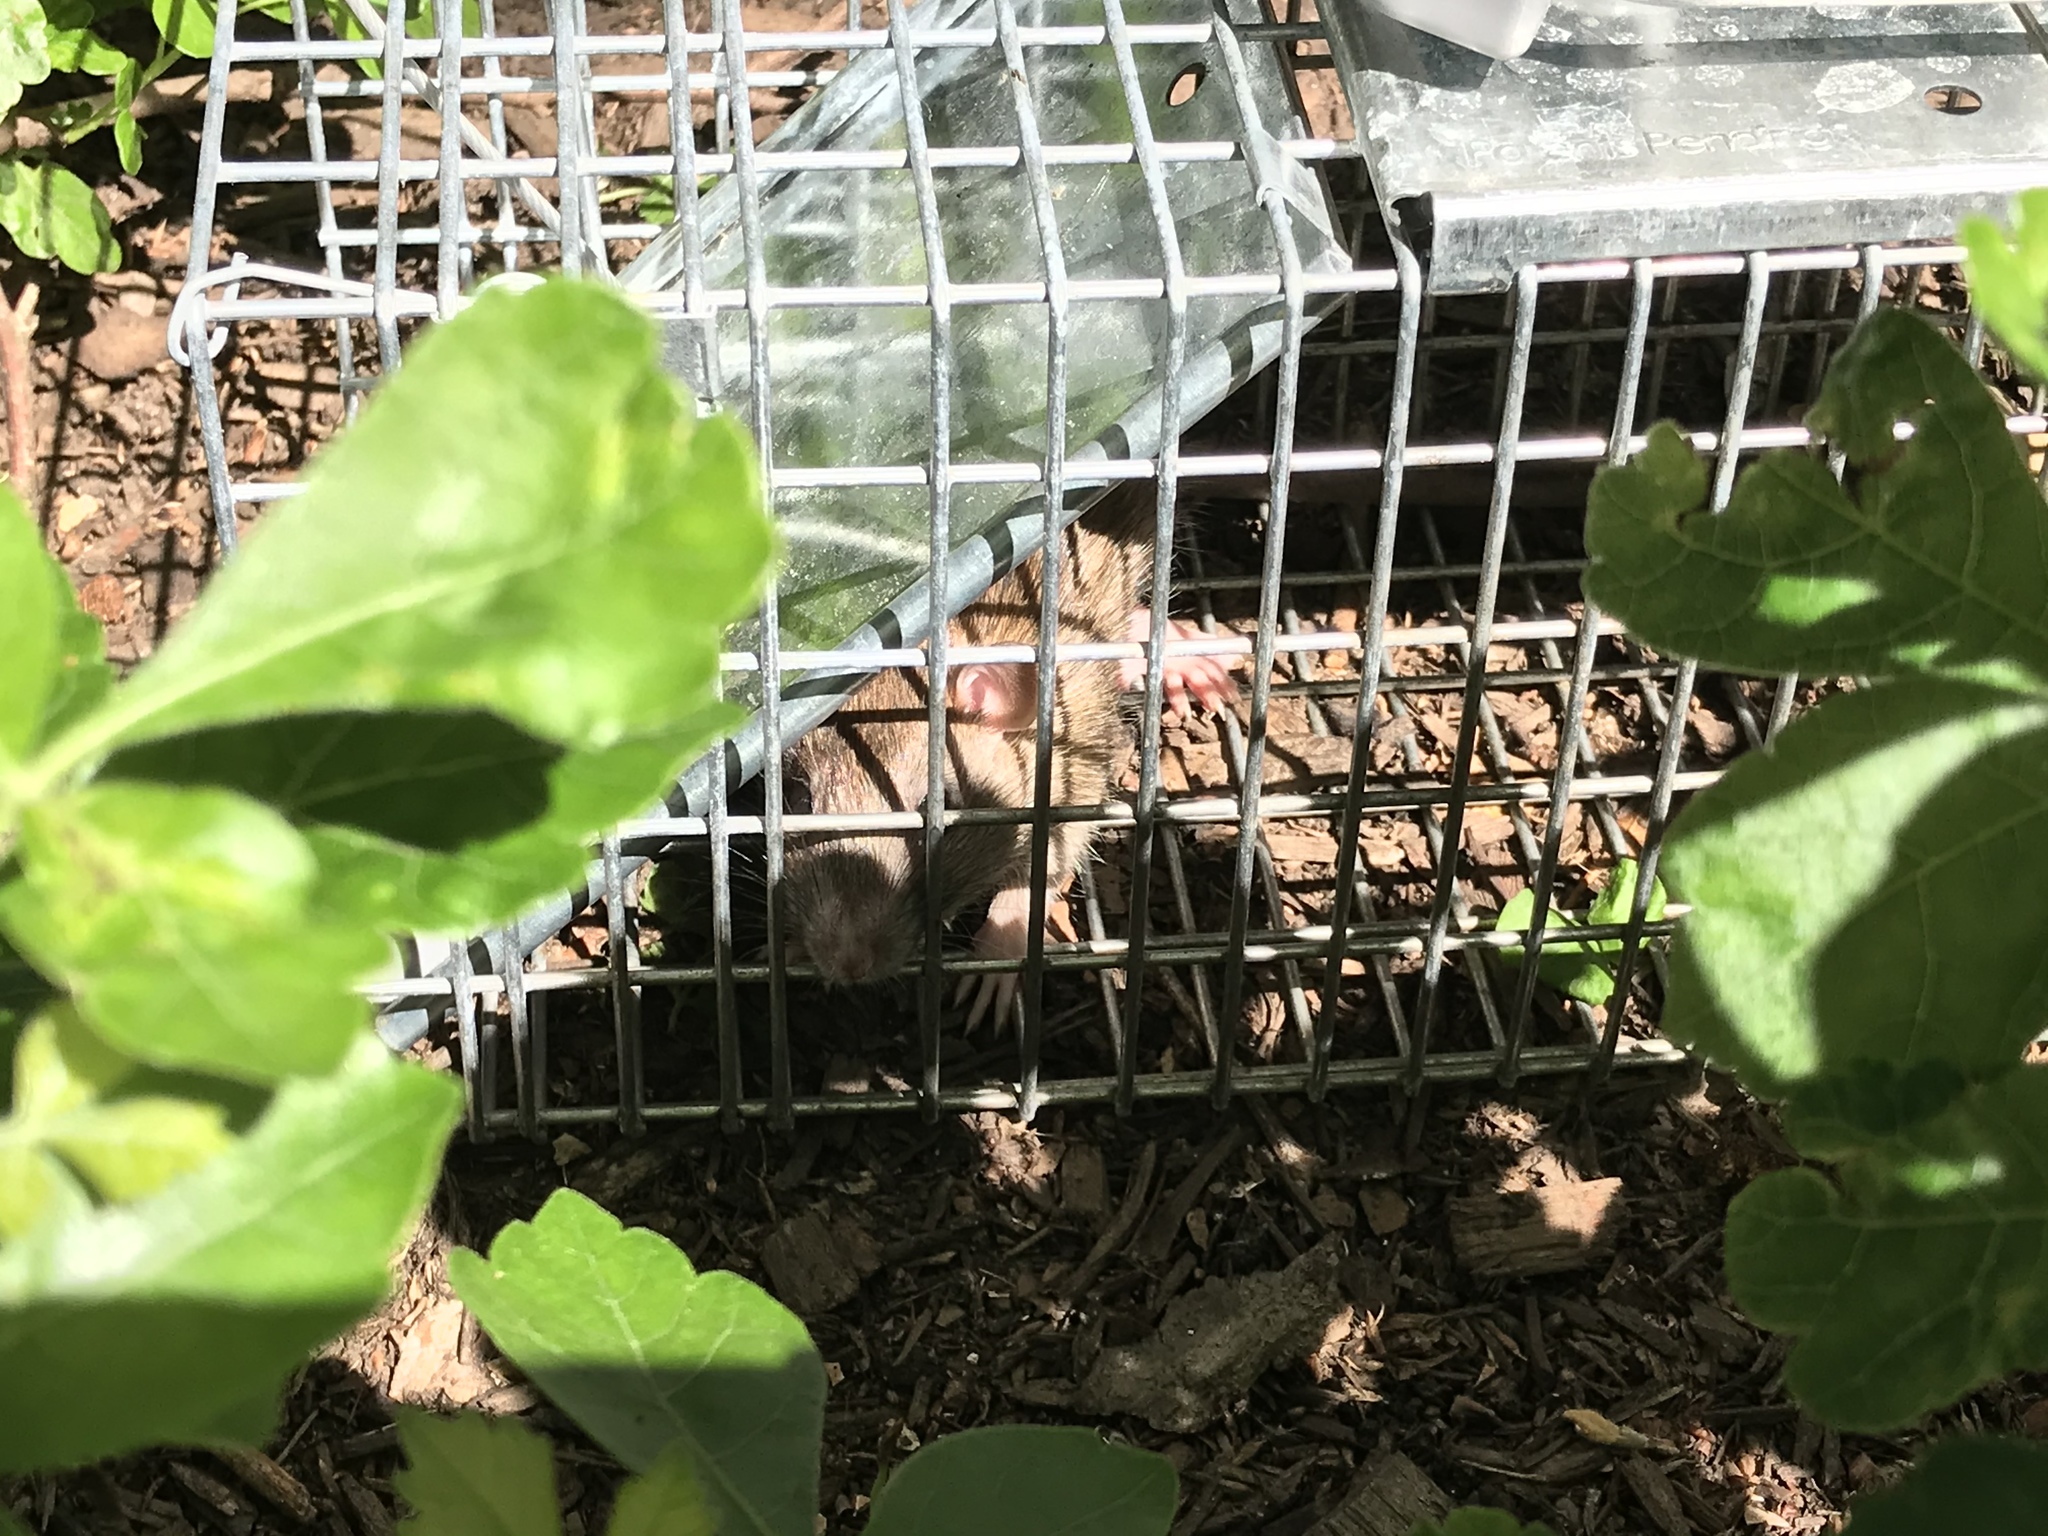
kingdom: Animalia
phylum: Chordata
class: Mammalia
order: Rodentia
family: Muridae
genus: Rattus
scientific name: Rattus norvegicus
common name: Brown rat
